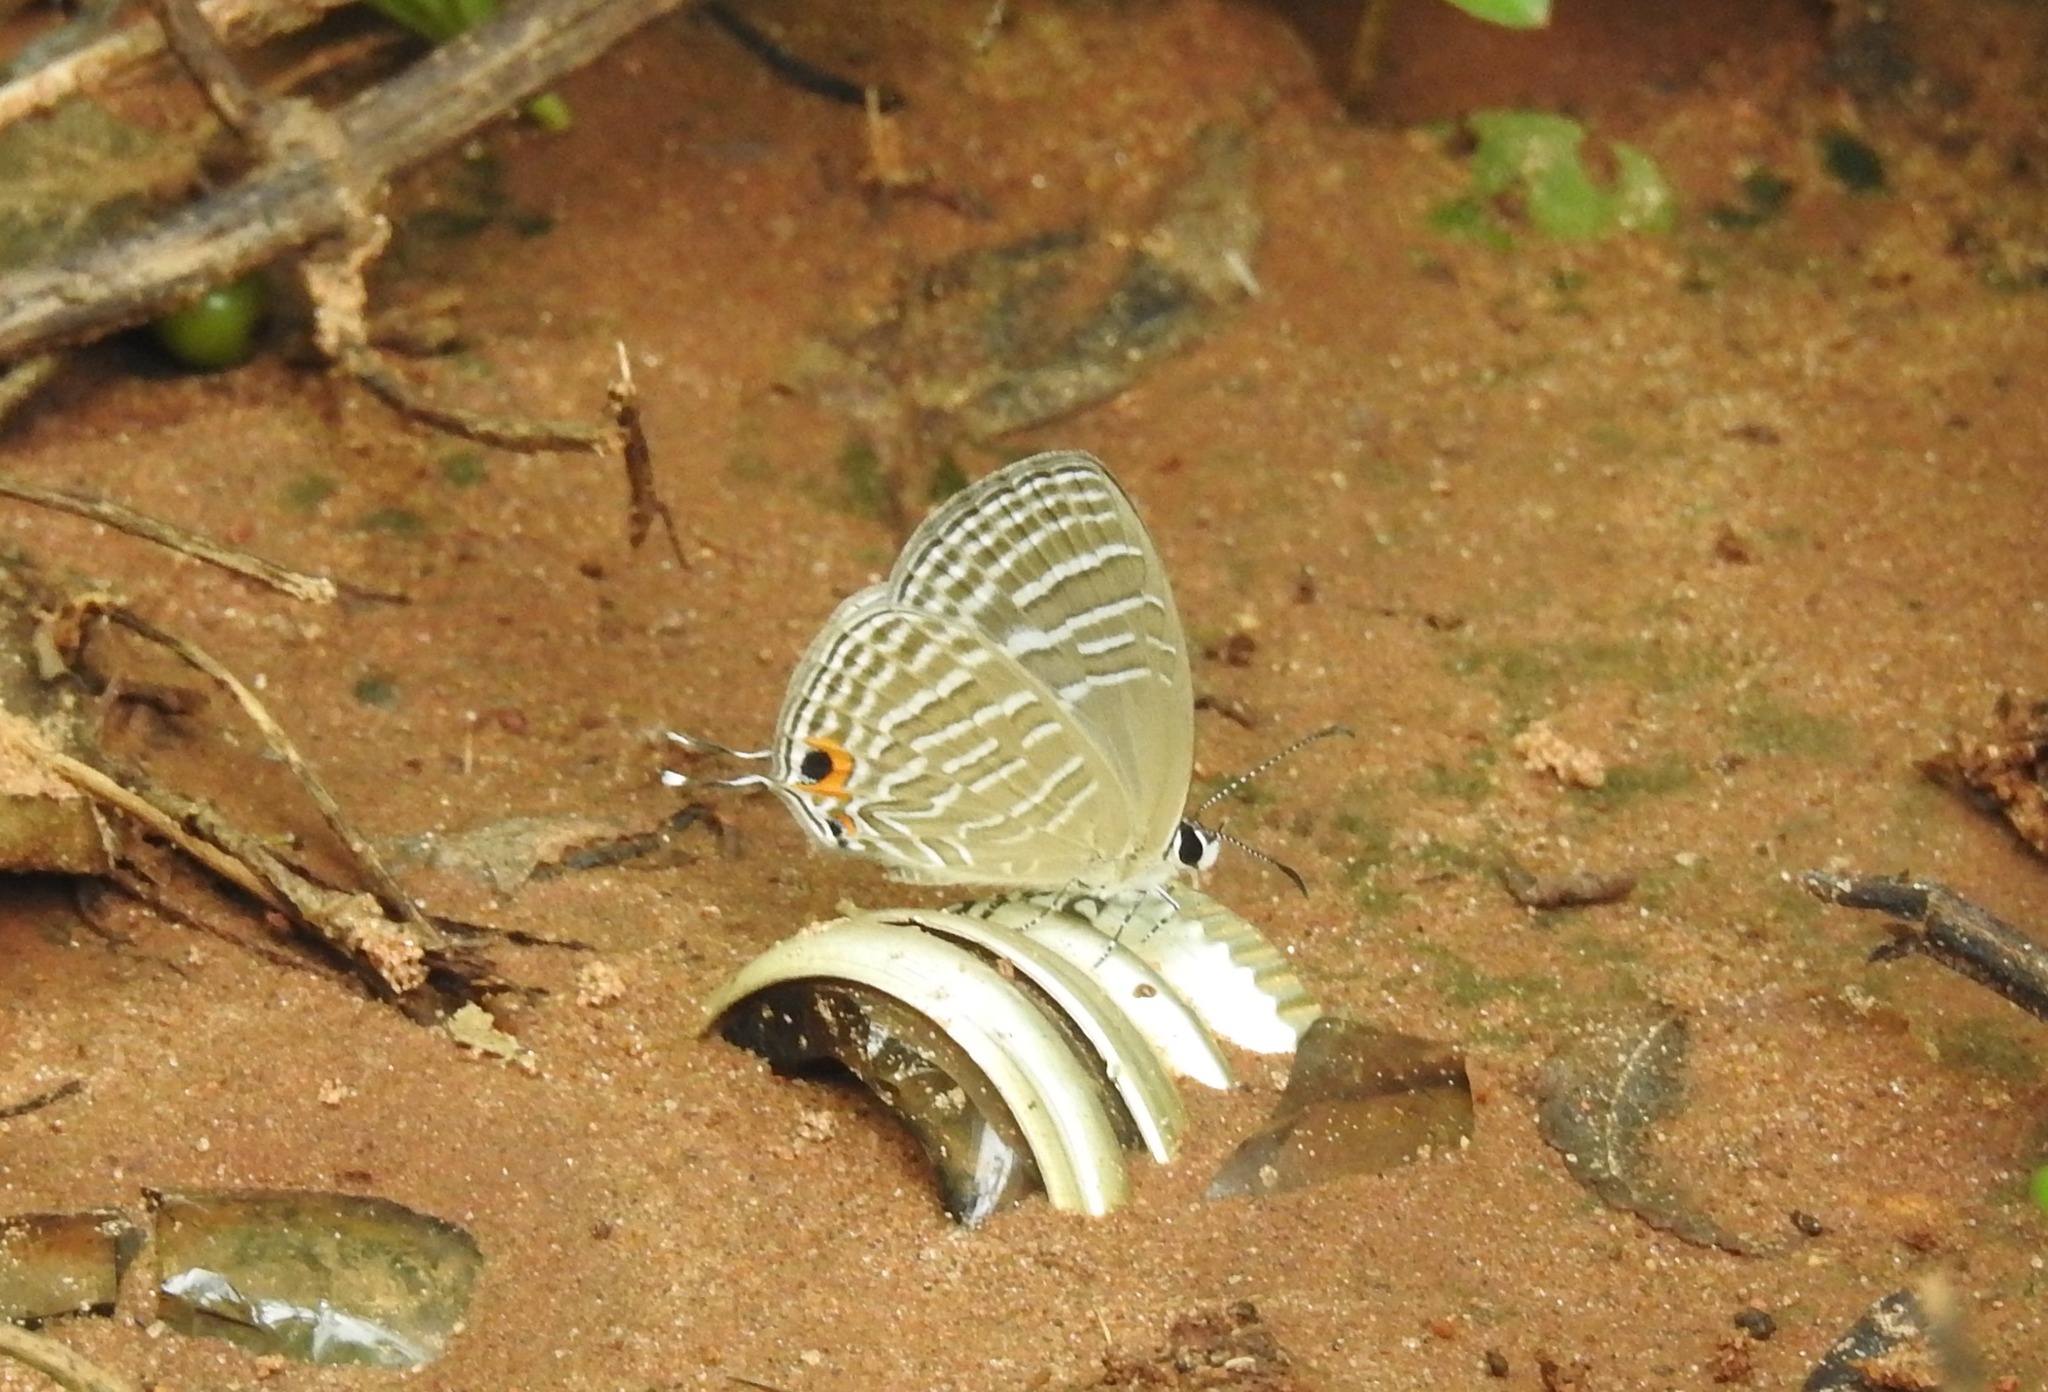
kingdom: Animalia
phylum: Arthropoda
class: Insecta
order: Lepidoptera
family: Lycaenidae
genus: Jamides
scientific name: Jamides celeno
